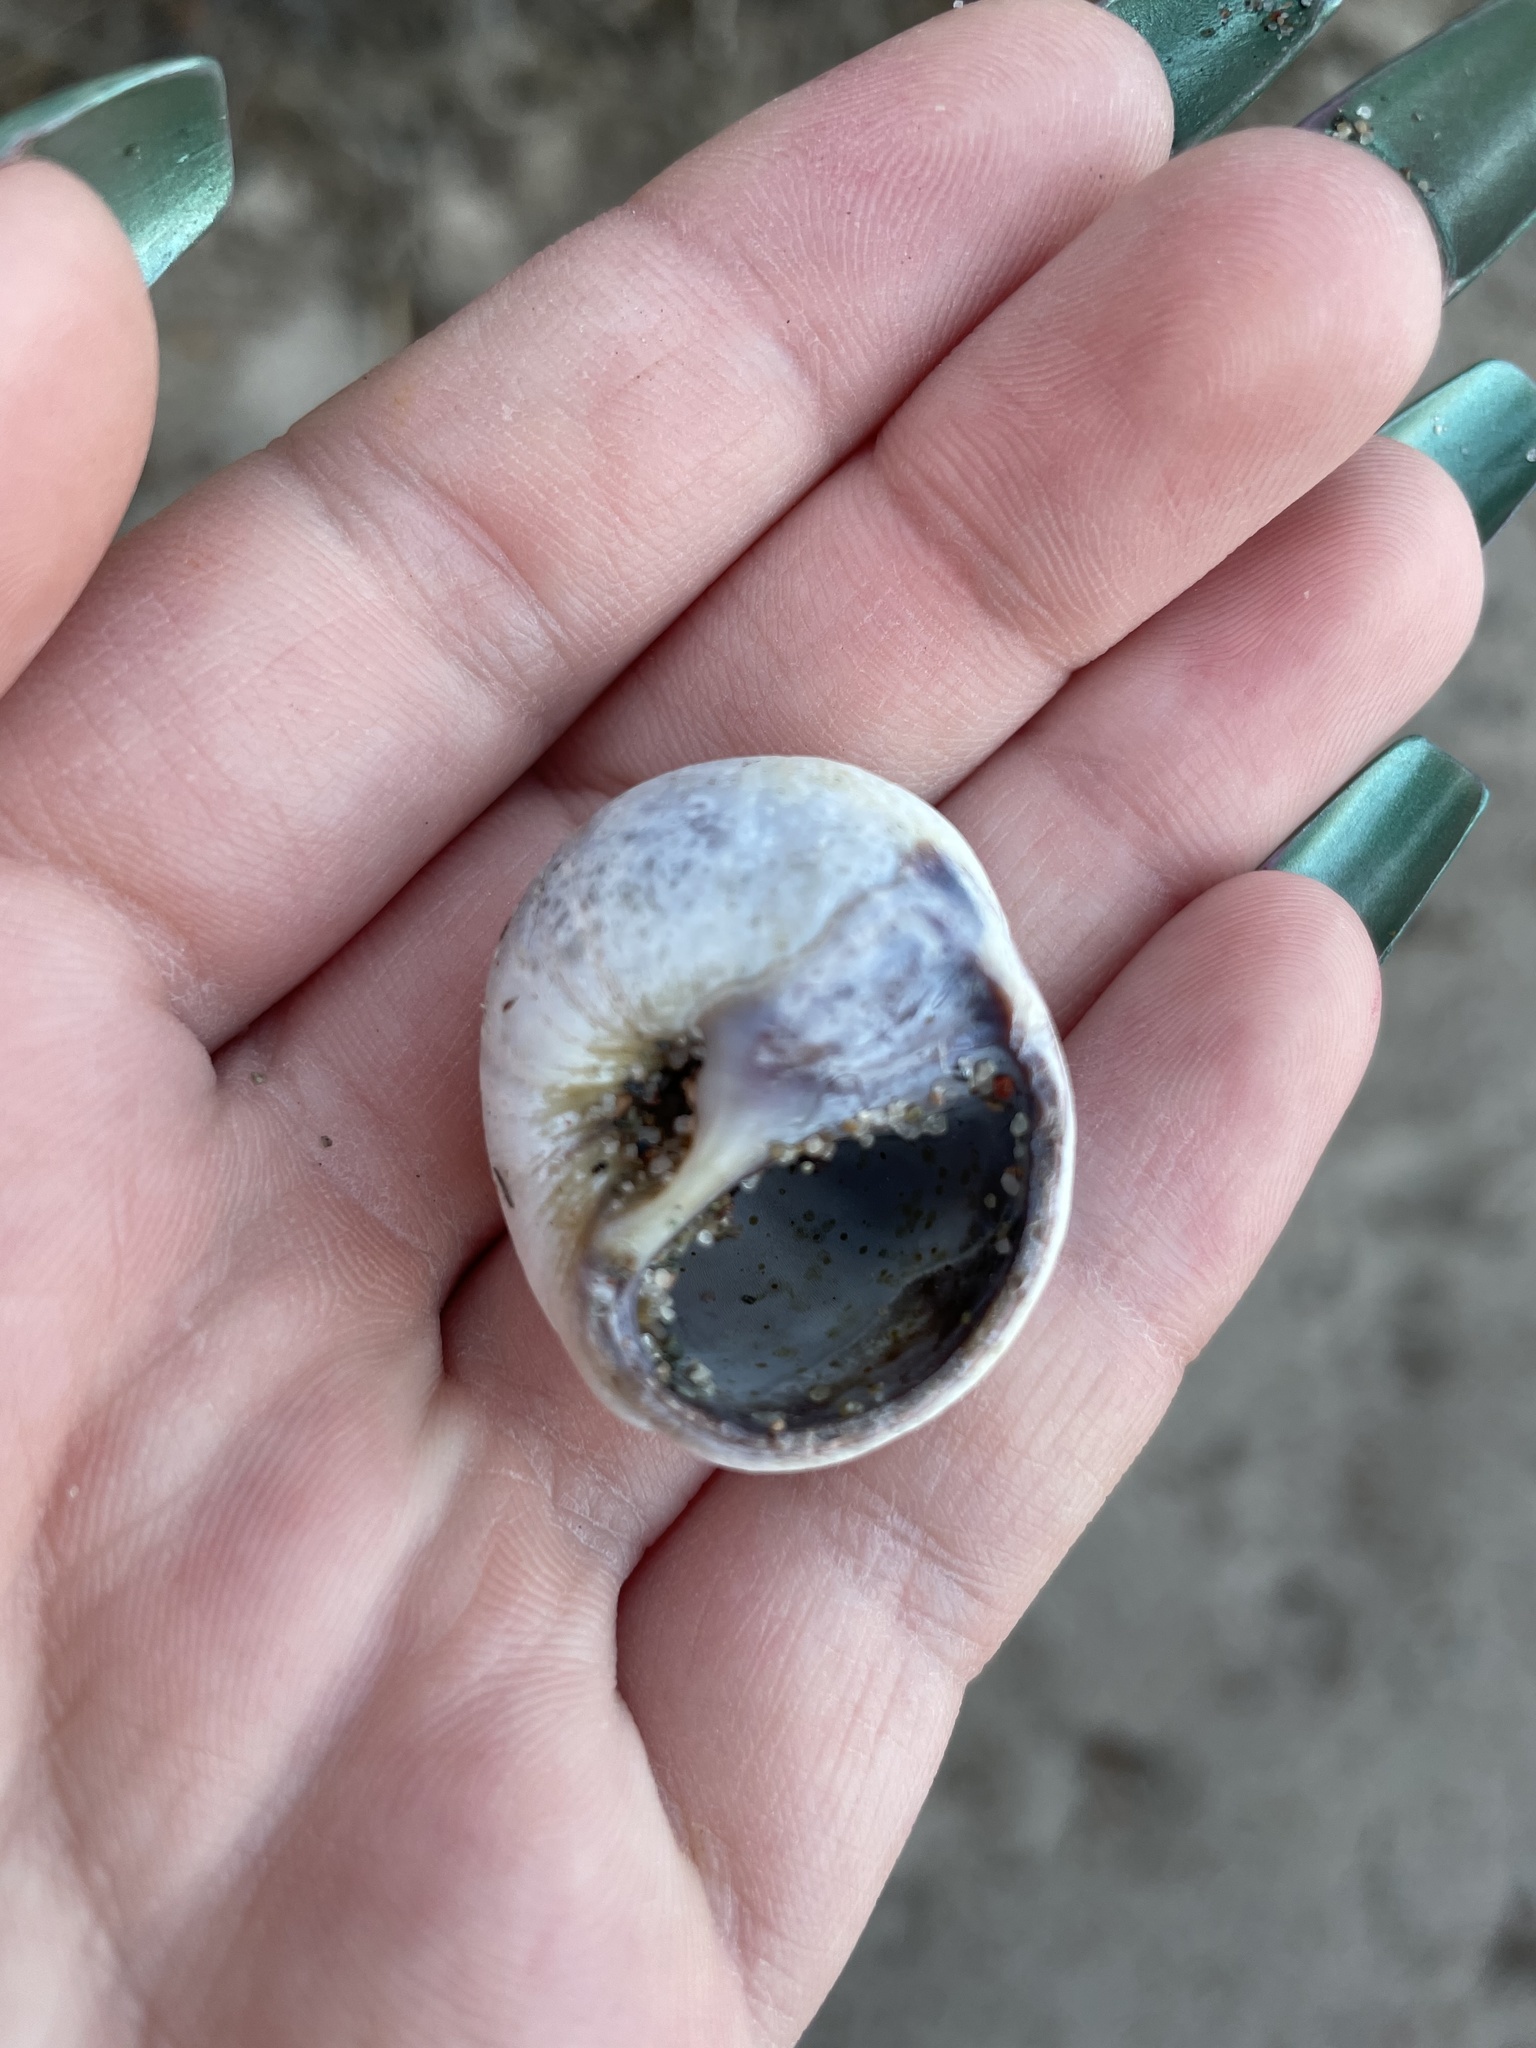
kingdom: Animalia
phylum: Mollusca
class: Gastropoda
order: Littorinimorpha
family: Naticidae
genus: Euspira
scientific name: Euspira heros
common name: Common northern moonsnail
